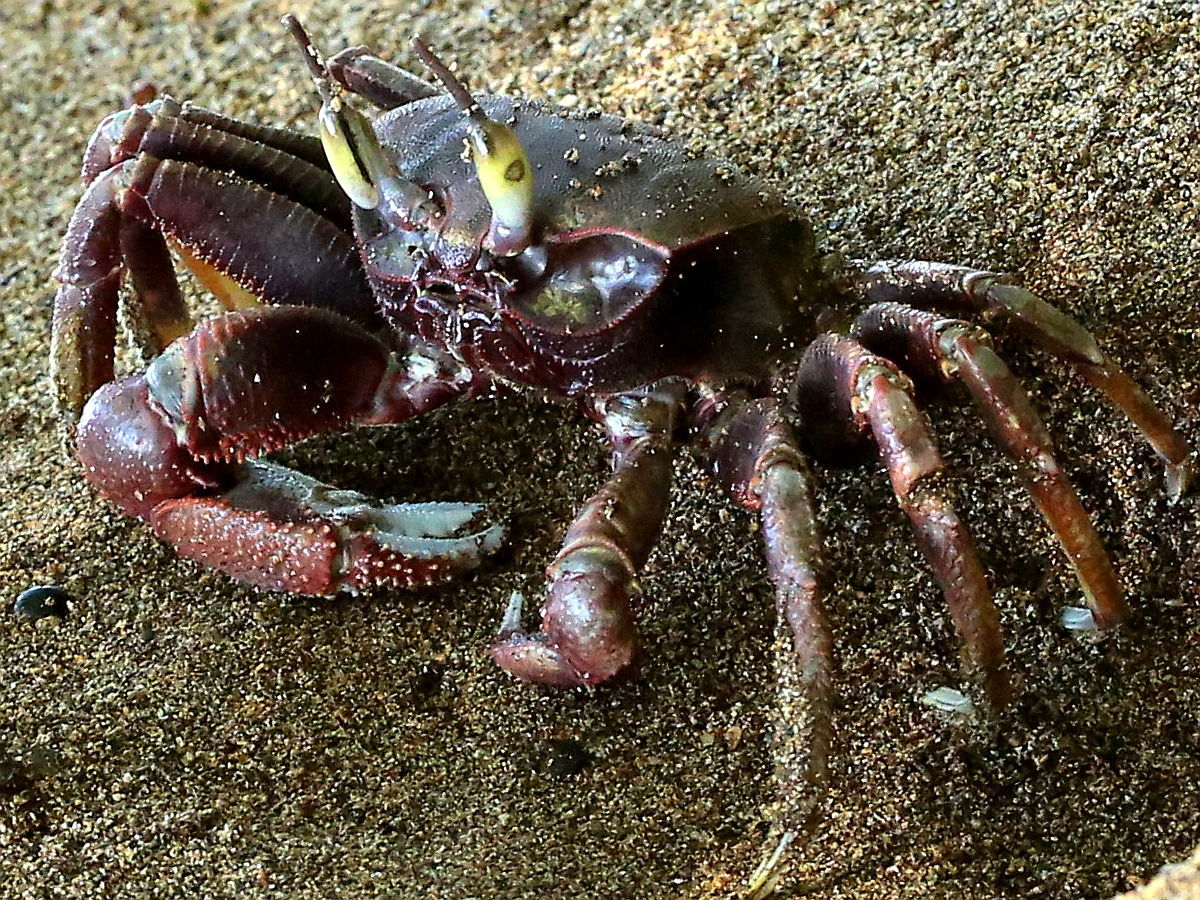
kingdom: Animalia
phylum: Arthropoda
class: Malacostraca
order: Decapoda
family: Ocypodidae
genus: Ocypode
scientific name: Ocypode ceratophthalmus
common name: Indo-pacific ghost crab
